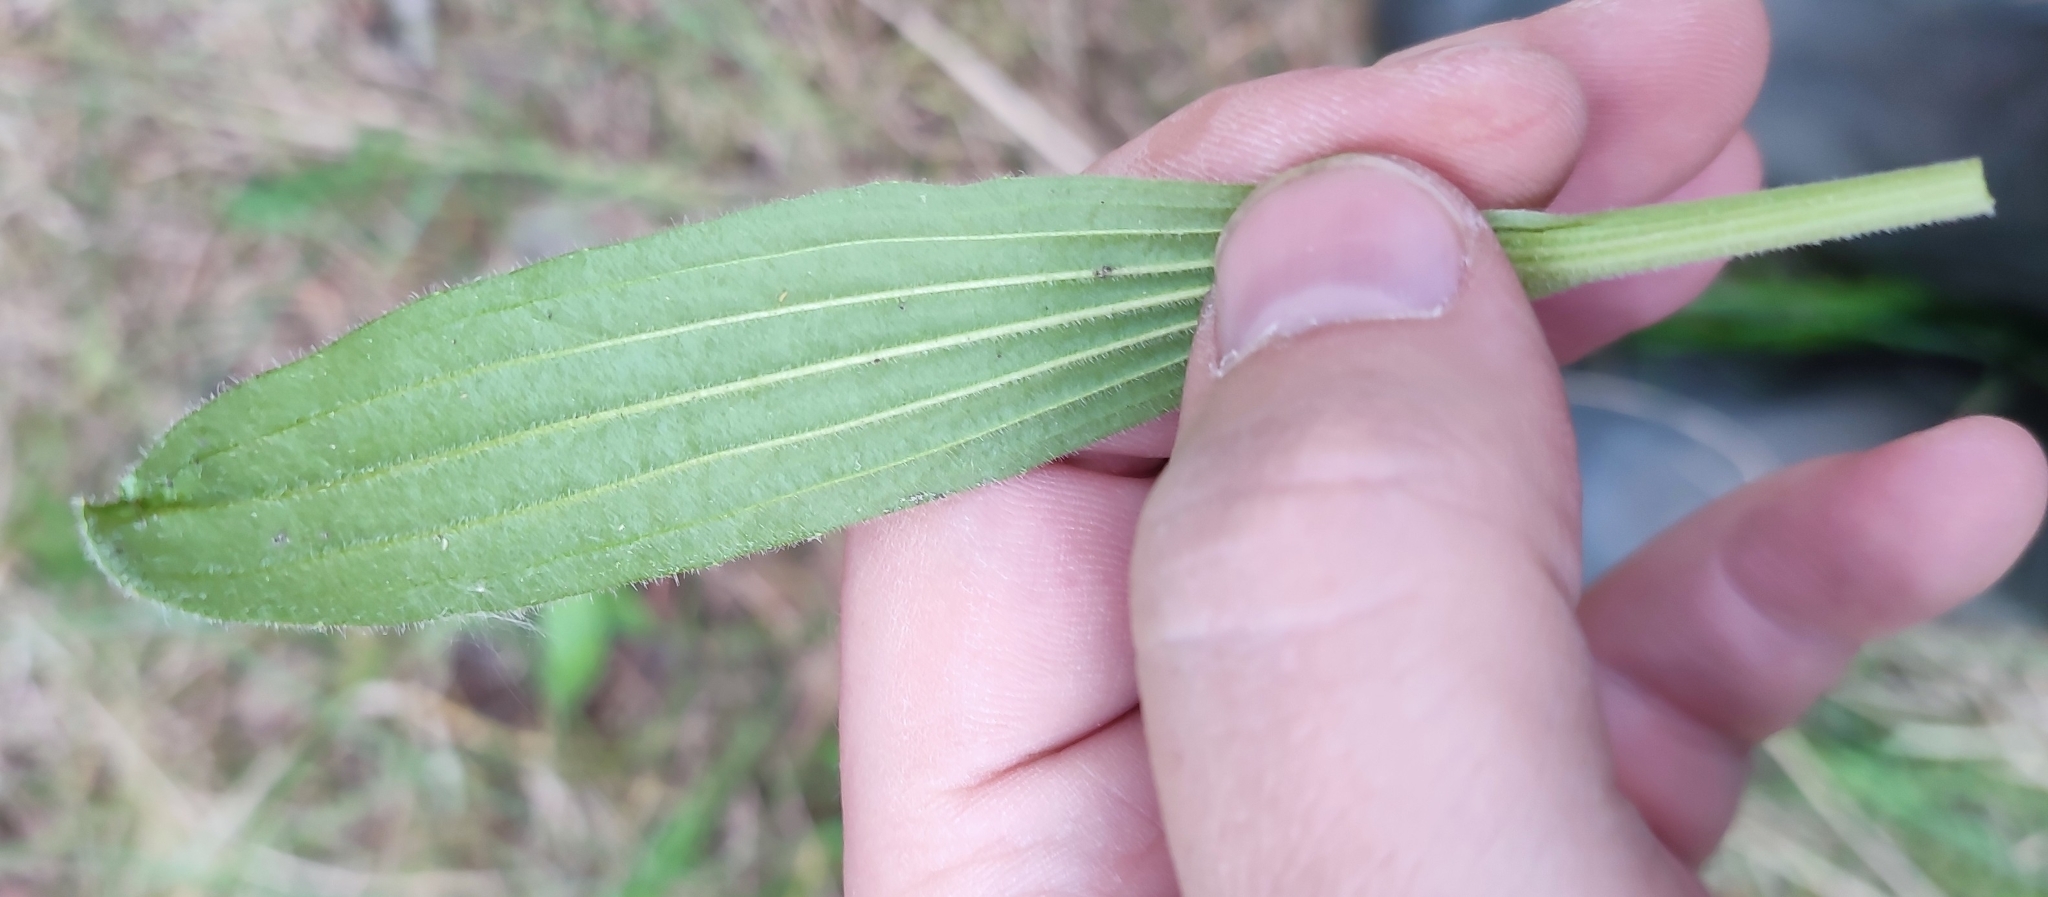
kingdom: Plantae
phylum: Tracheophyta
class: Magnoliopsida
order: Lamiales
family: Plantaginaceae
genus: Plantago
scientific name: Plantago urvillei
